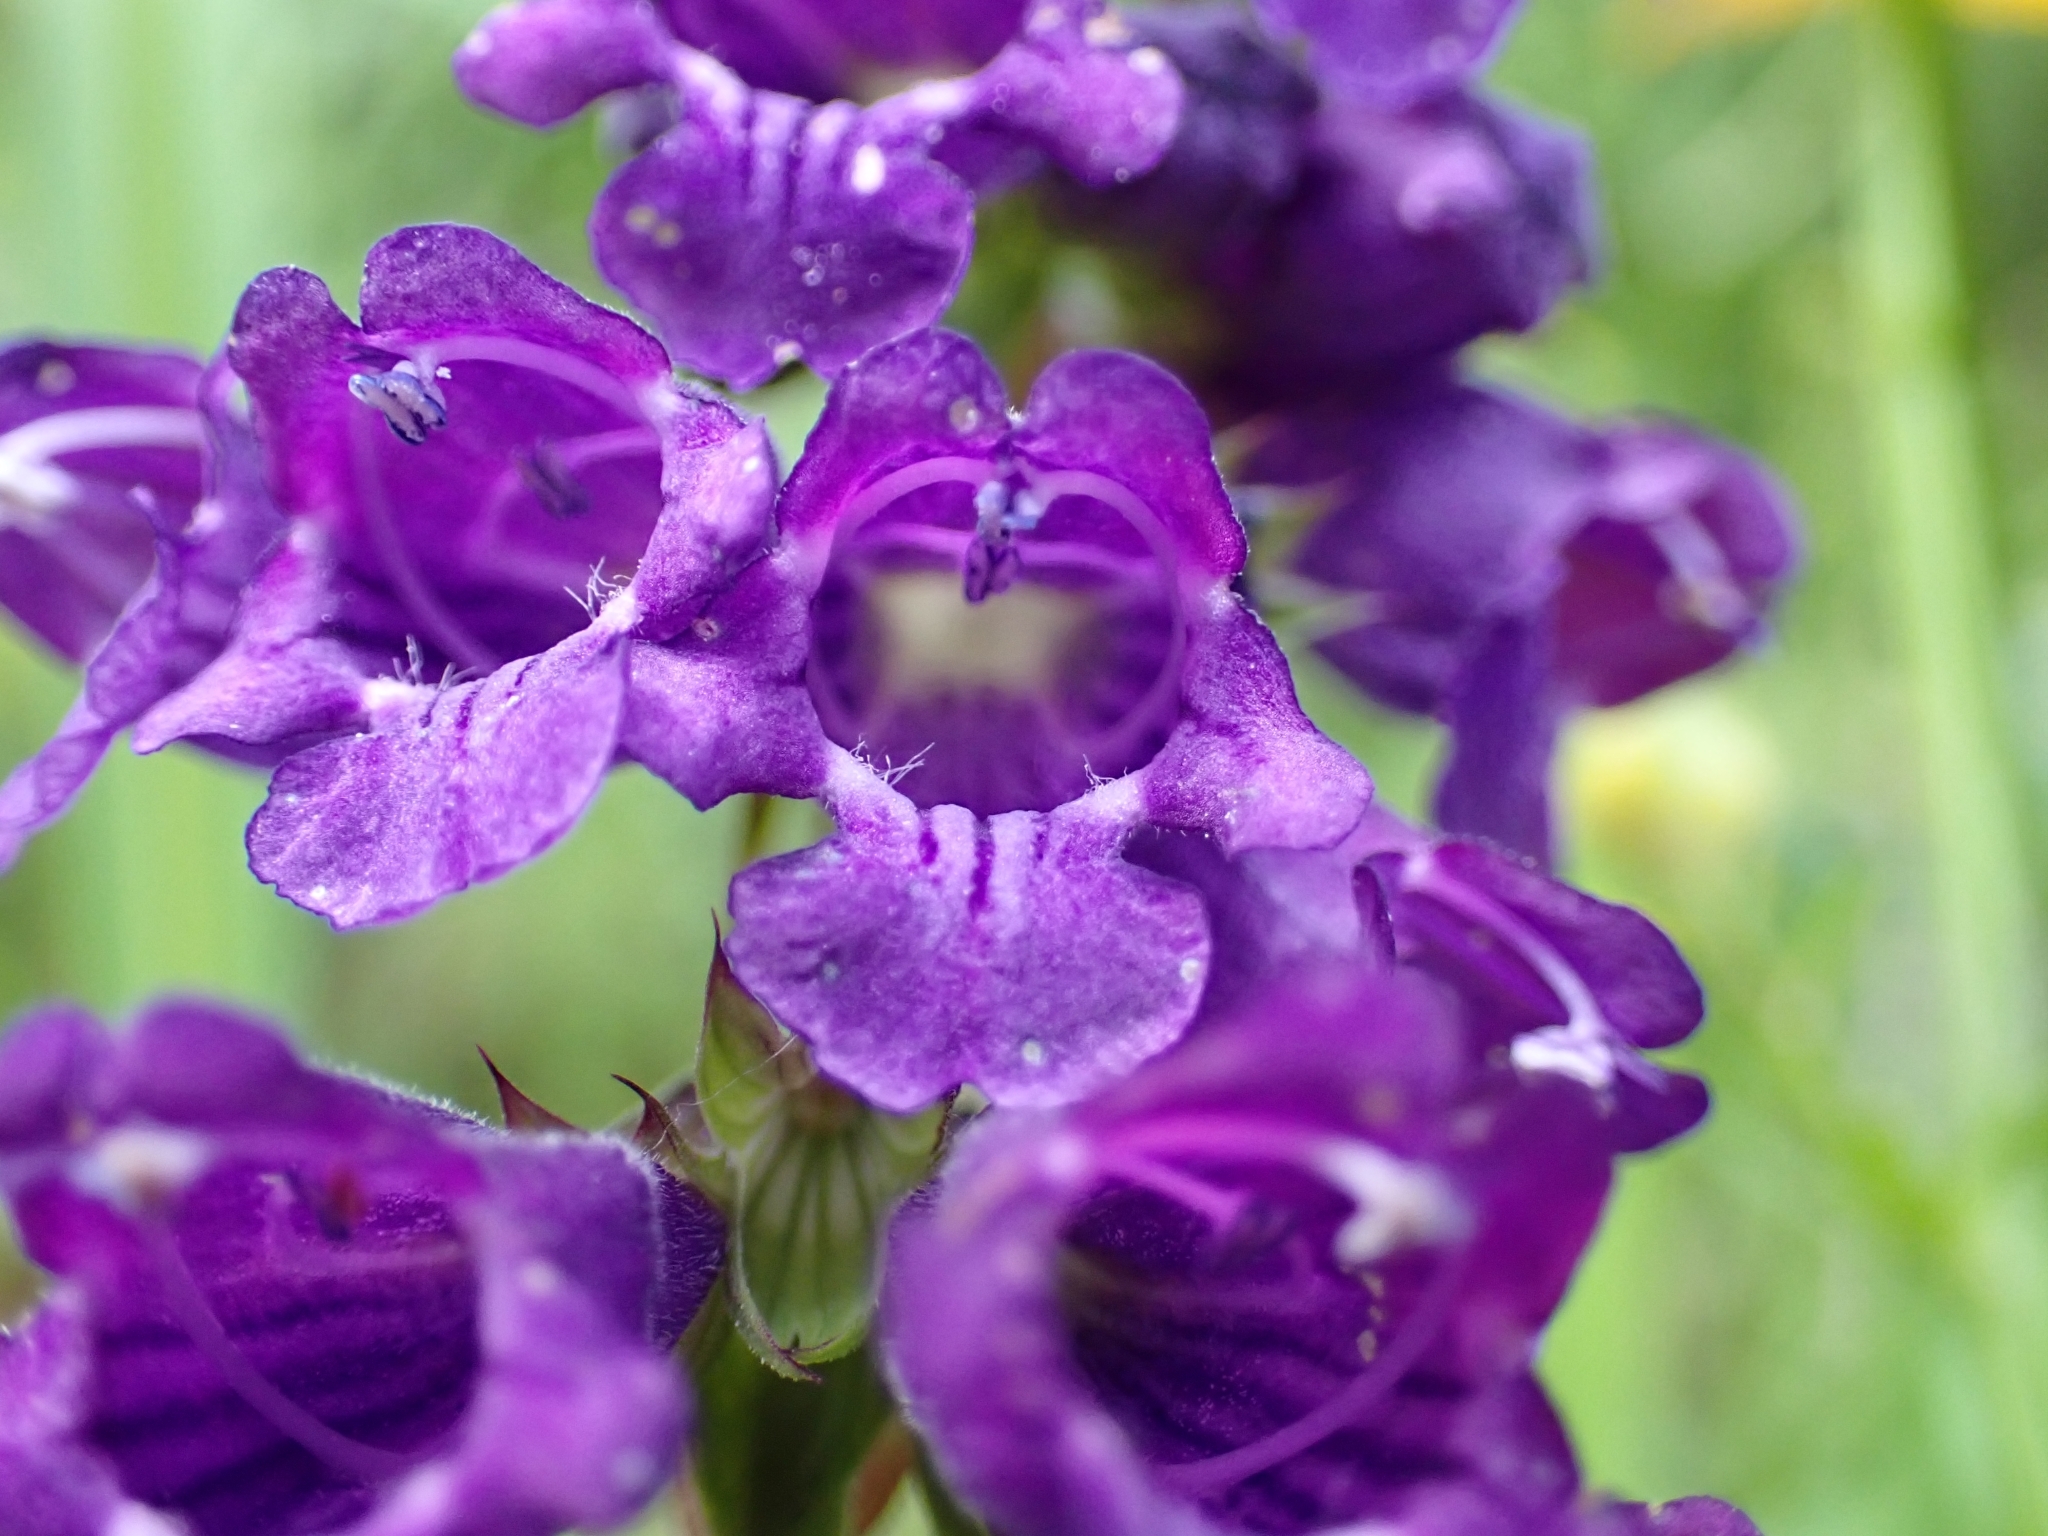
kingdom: Plantae
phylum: Tracheophyta
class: Magnoliopsida
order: Lamiales
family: Lamiaceae
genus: Horminum
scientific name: Horminum pyrenaicum
